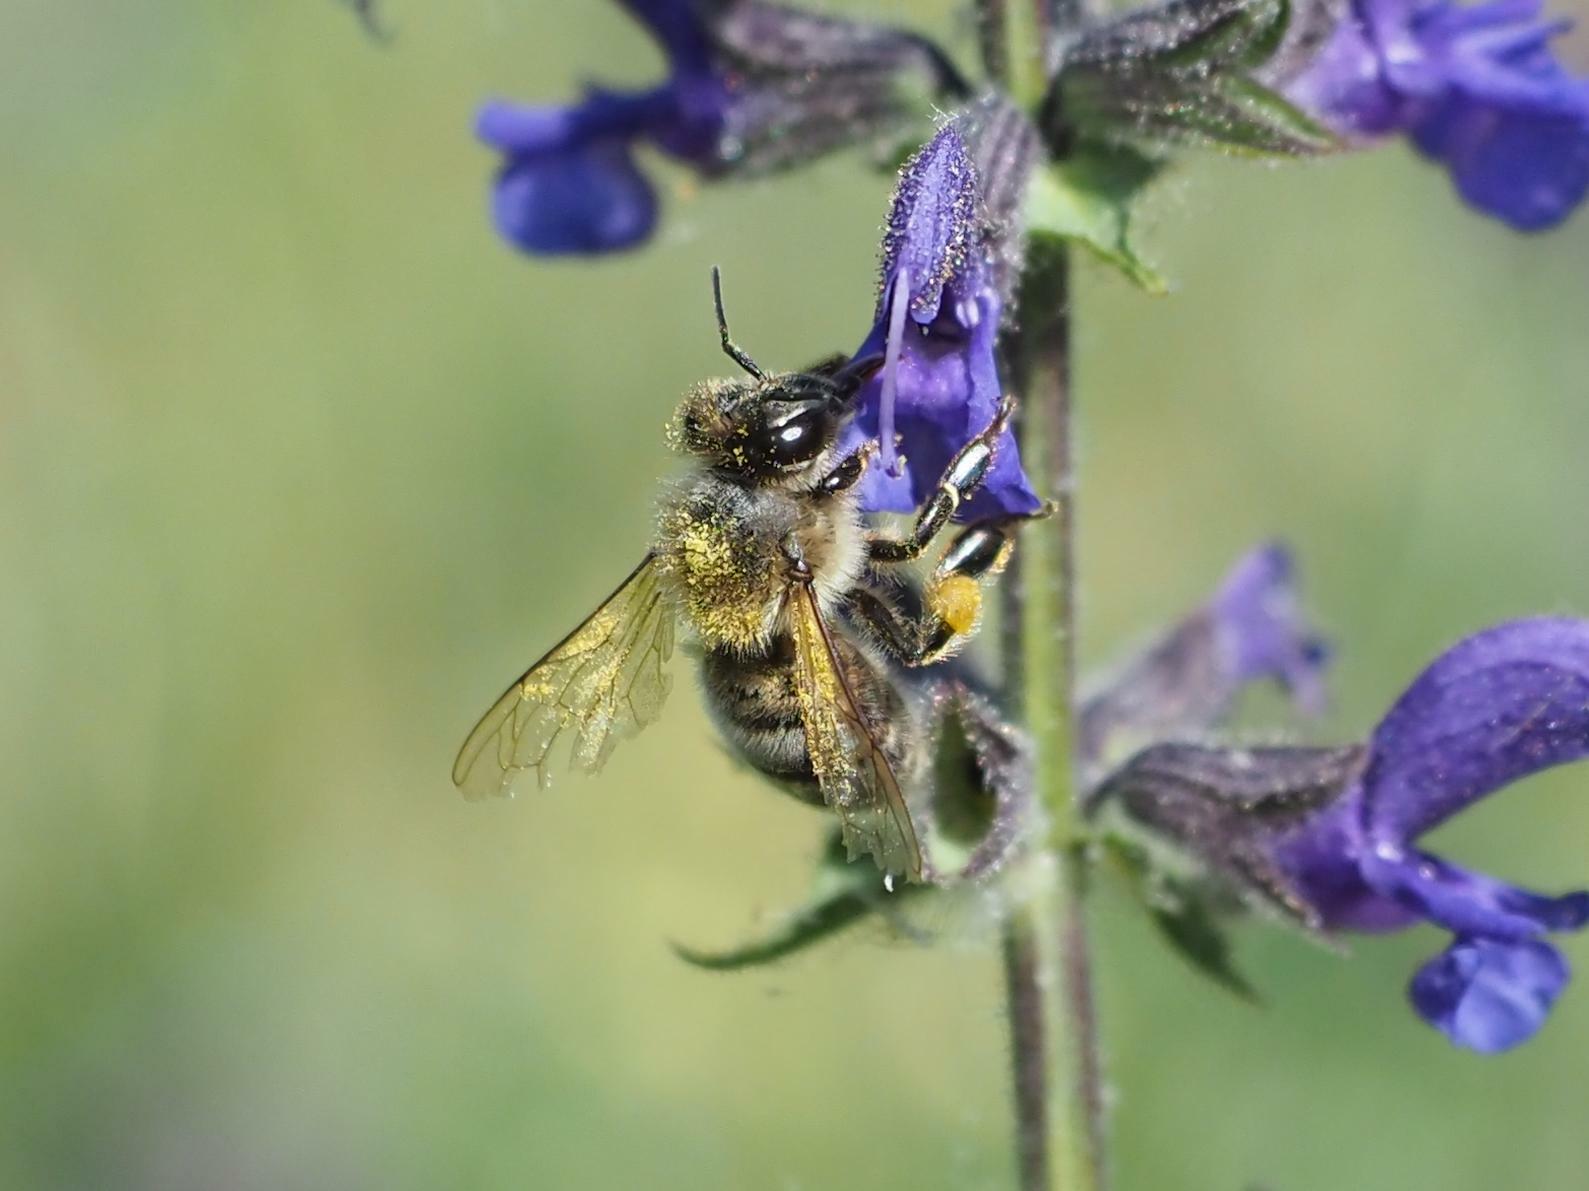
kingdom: Animalia
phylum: Arthropoda
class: Insecta
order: Hymenoptera
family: Apidae
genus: Apis
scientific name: Apis mellifera
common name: Honey bee
